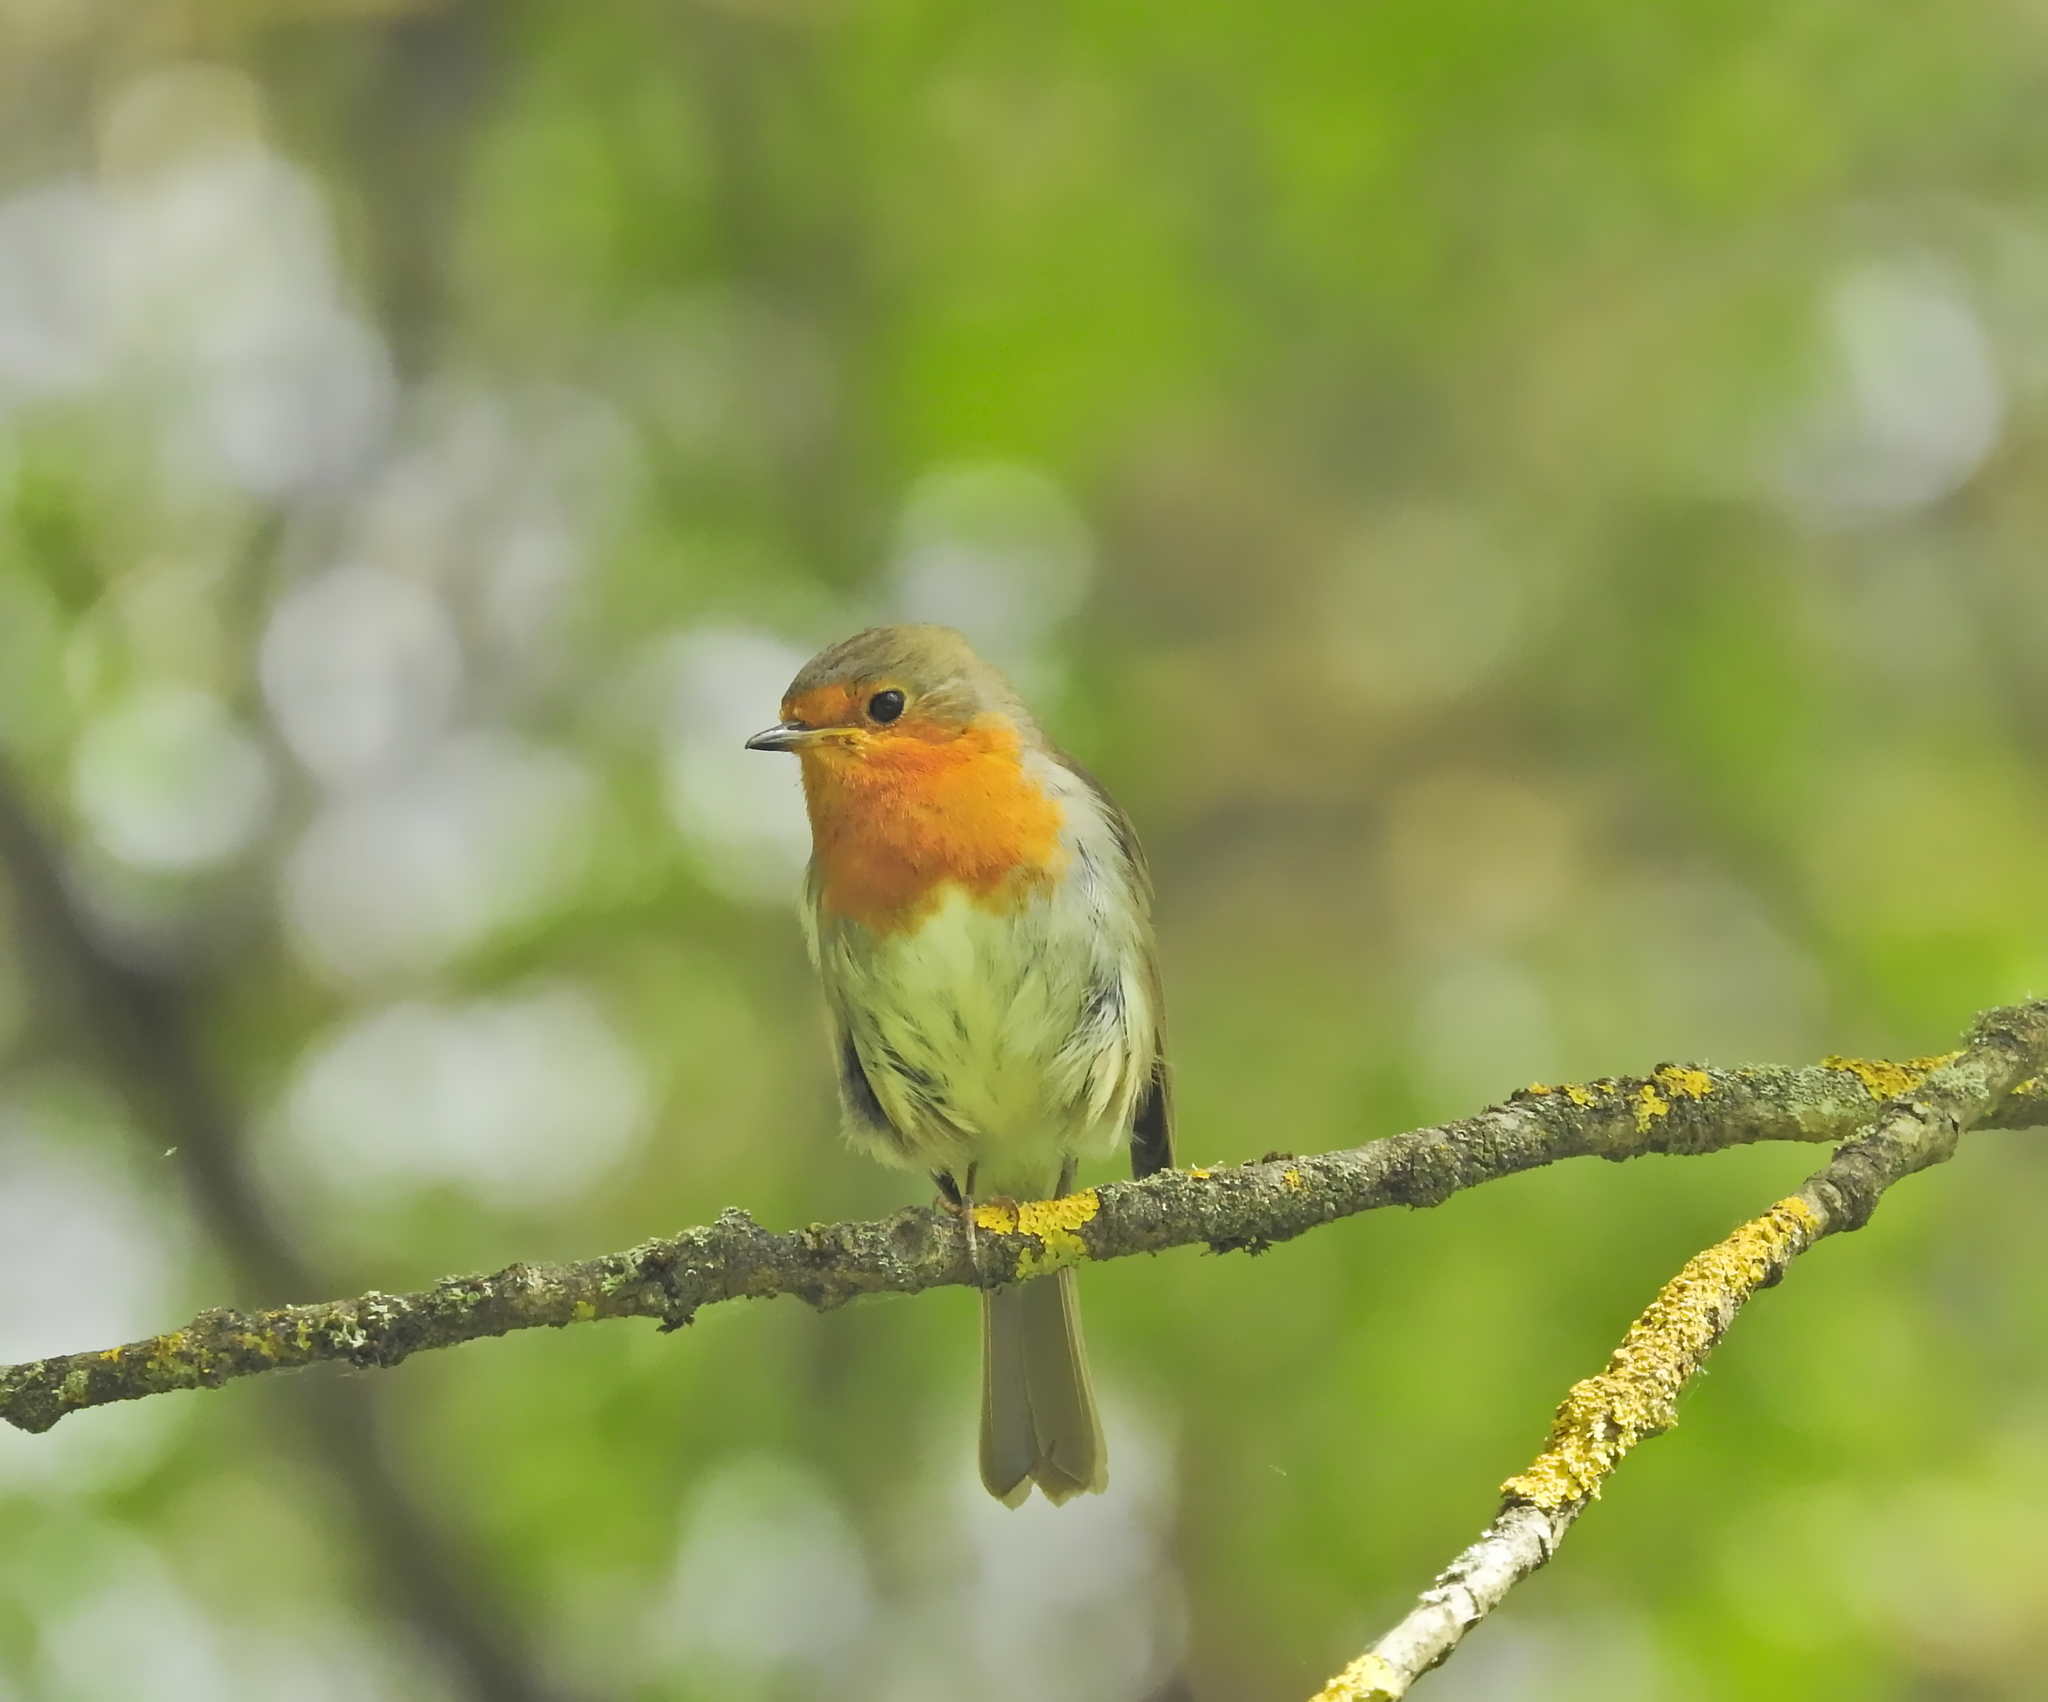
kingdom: Animalia
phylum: Chordata
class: Aves
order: Passeriformes
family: Muscicapidae
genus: Erithacus
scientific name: Erithacus rubecula
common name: European robin
